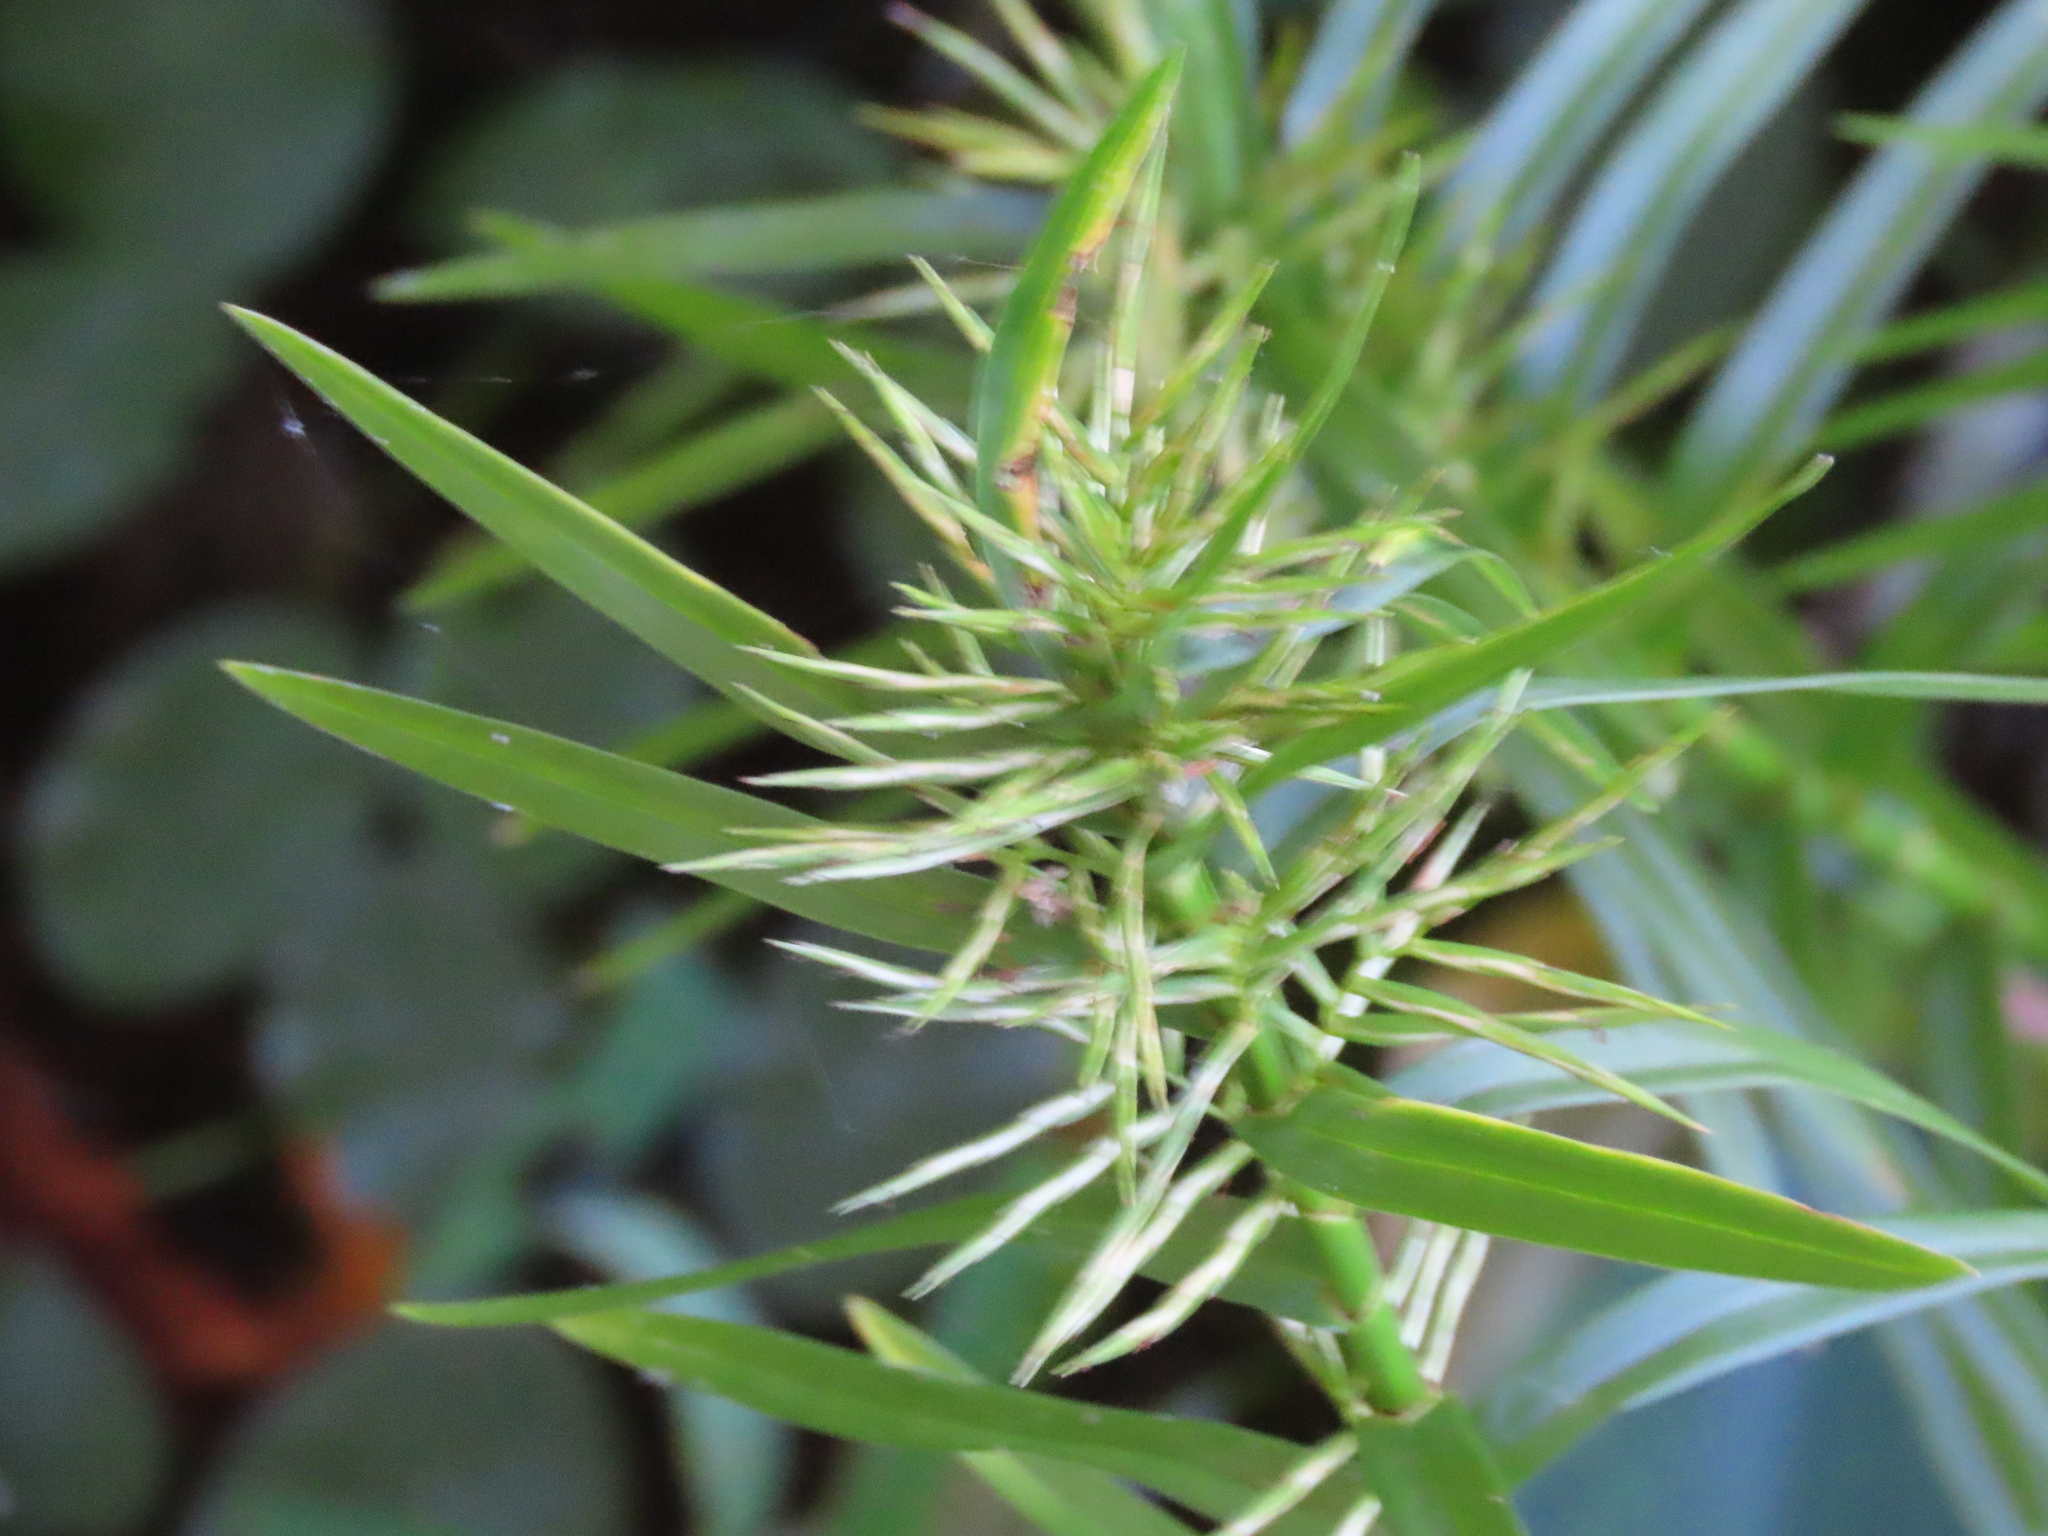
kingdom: Plantae
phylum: Tracheophyta
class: Liliopsida
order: Poales
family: Cyperaceae
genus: Dulichium
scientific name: Dulichium arundinaceum
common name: Three-way sedge
